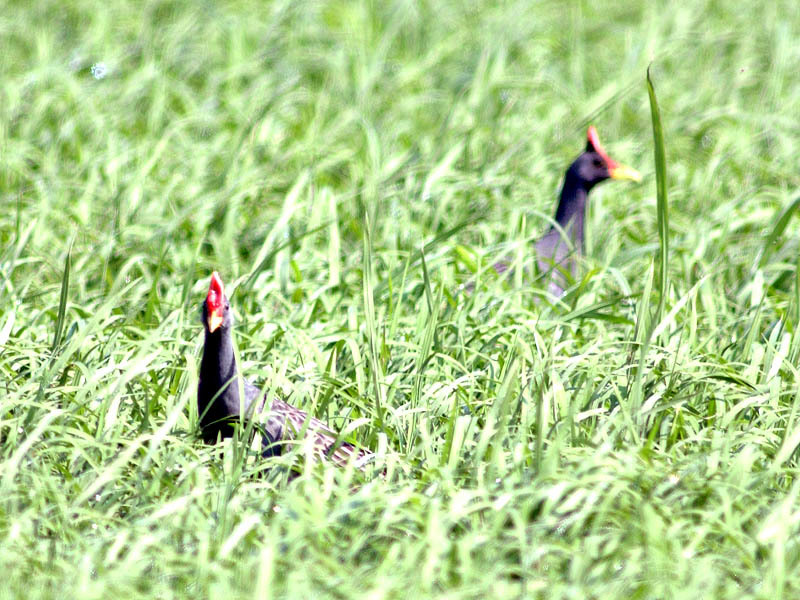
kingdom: Animalia
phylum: Chordata
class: Aves
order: Gruiformes
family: Rallidae
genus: Gallicrex
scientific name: Gallicrex cinerea
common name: Watercock
